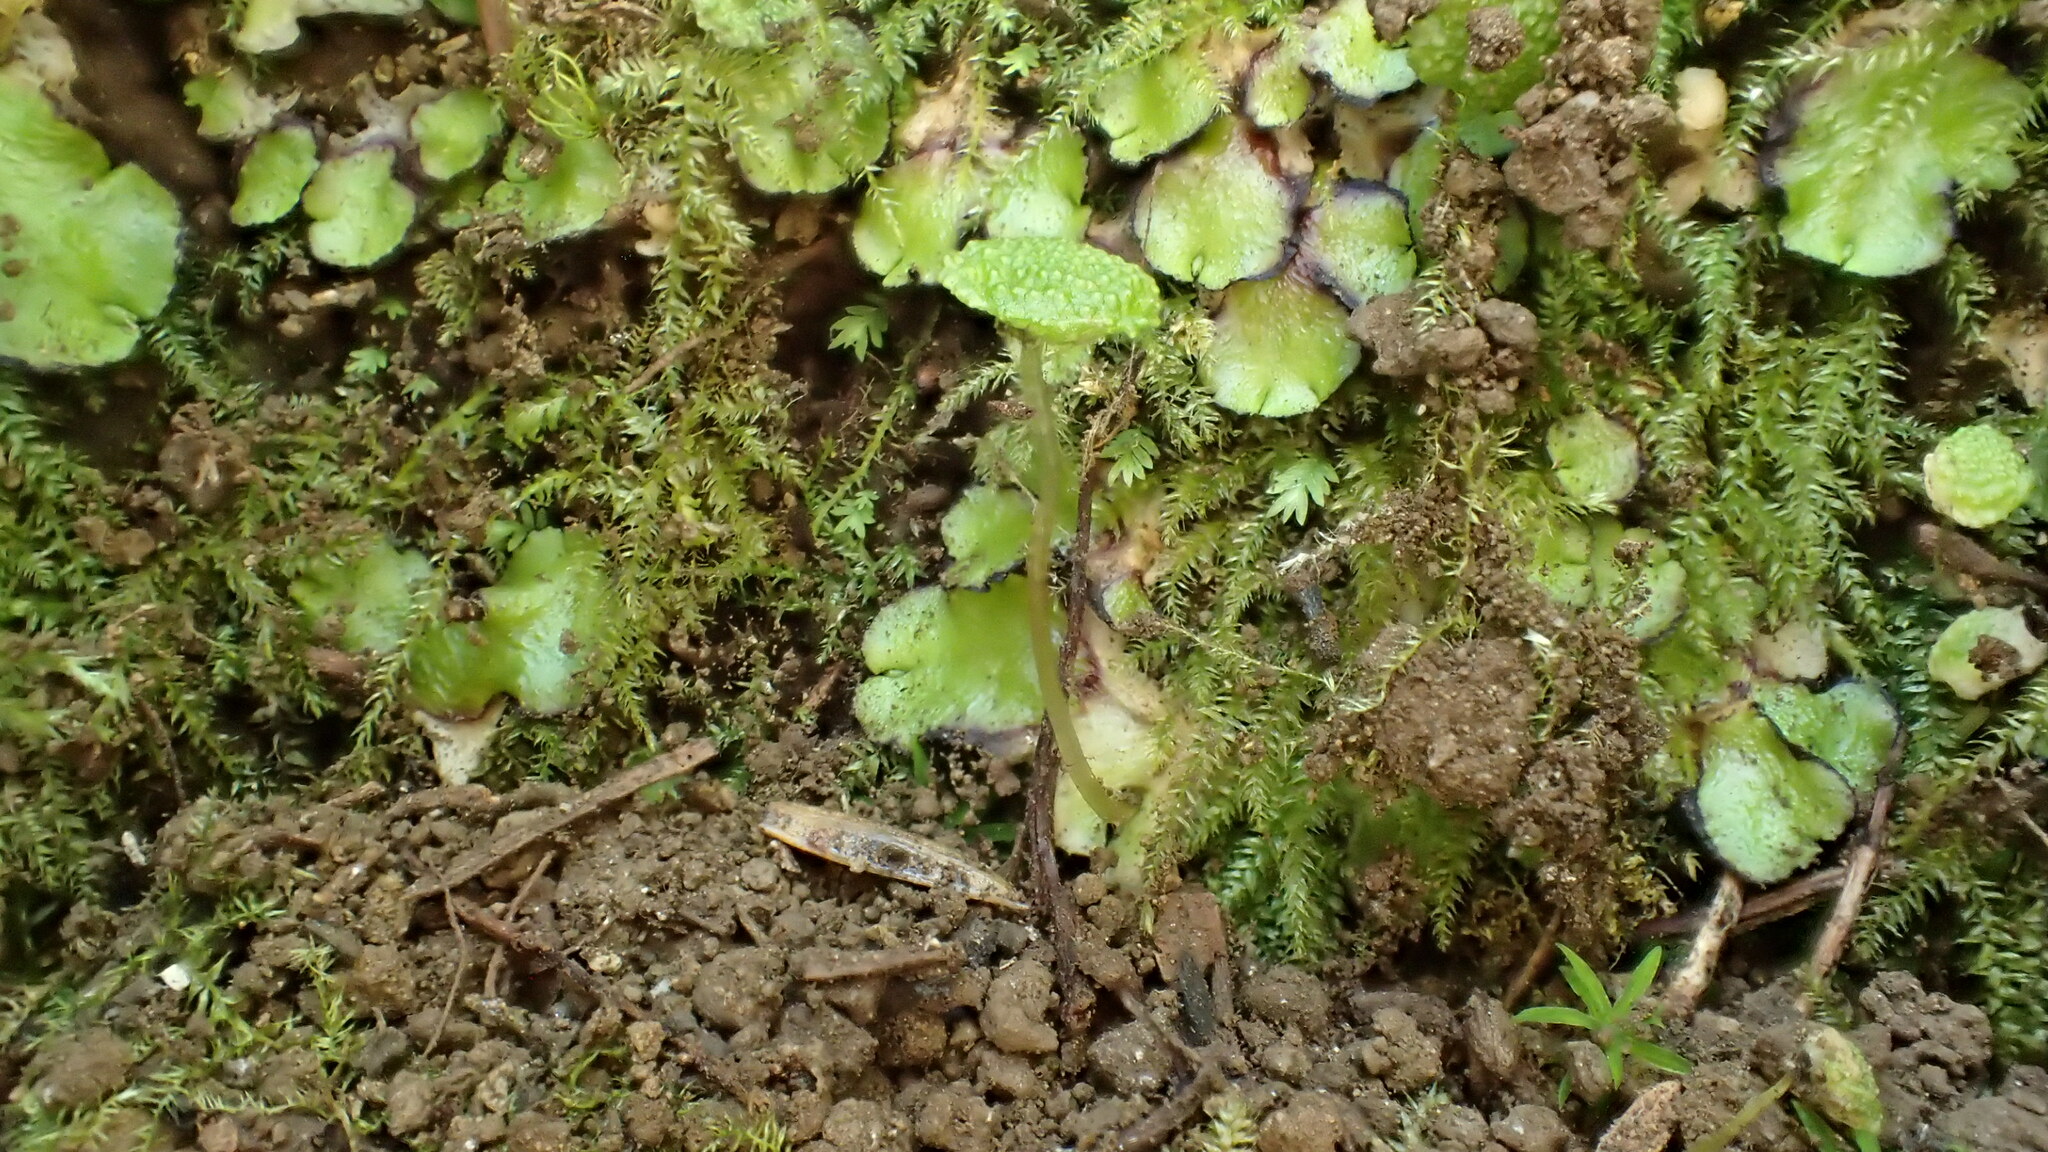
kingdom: Plantae
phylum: Marchantiophyta
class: Marchantiopsida
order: Marchantiales
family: Aytoniaceae
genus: Cryptomitrium
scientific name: Cryptomitrium tenerum
